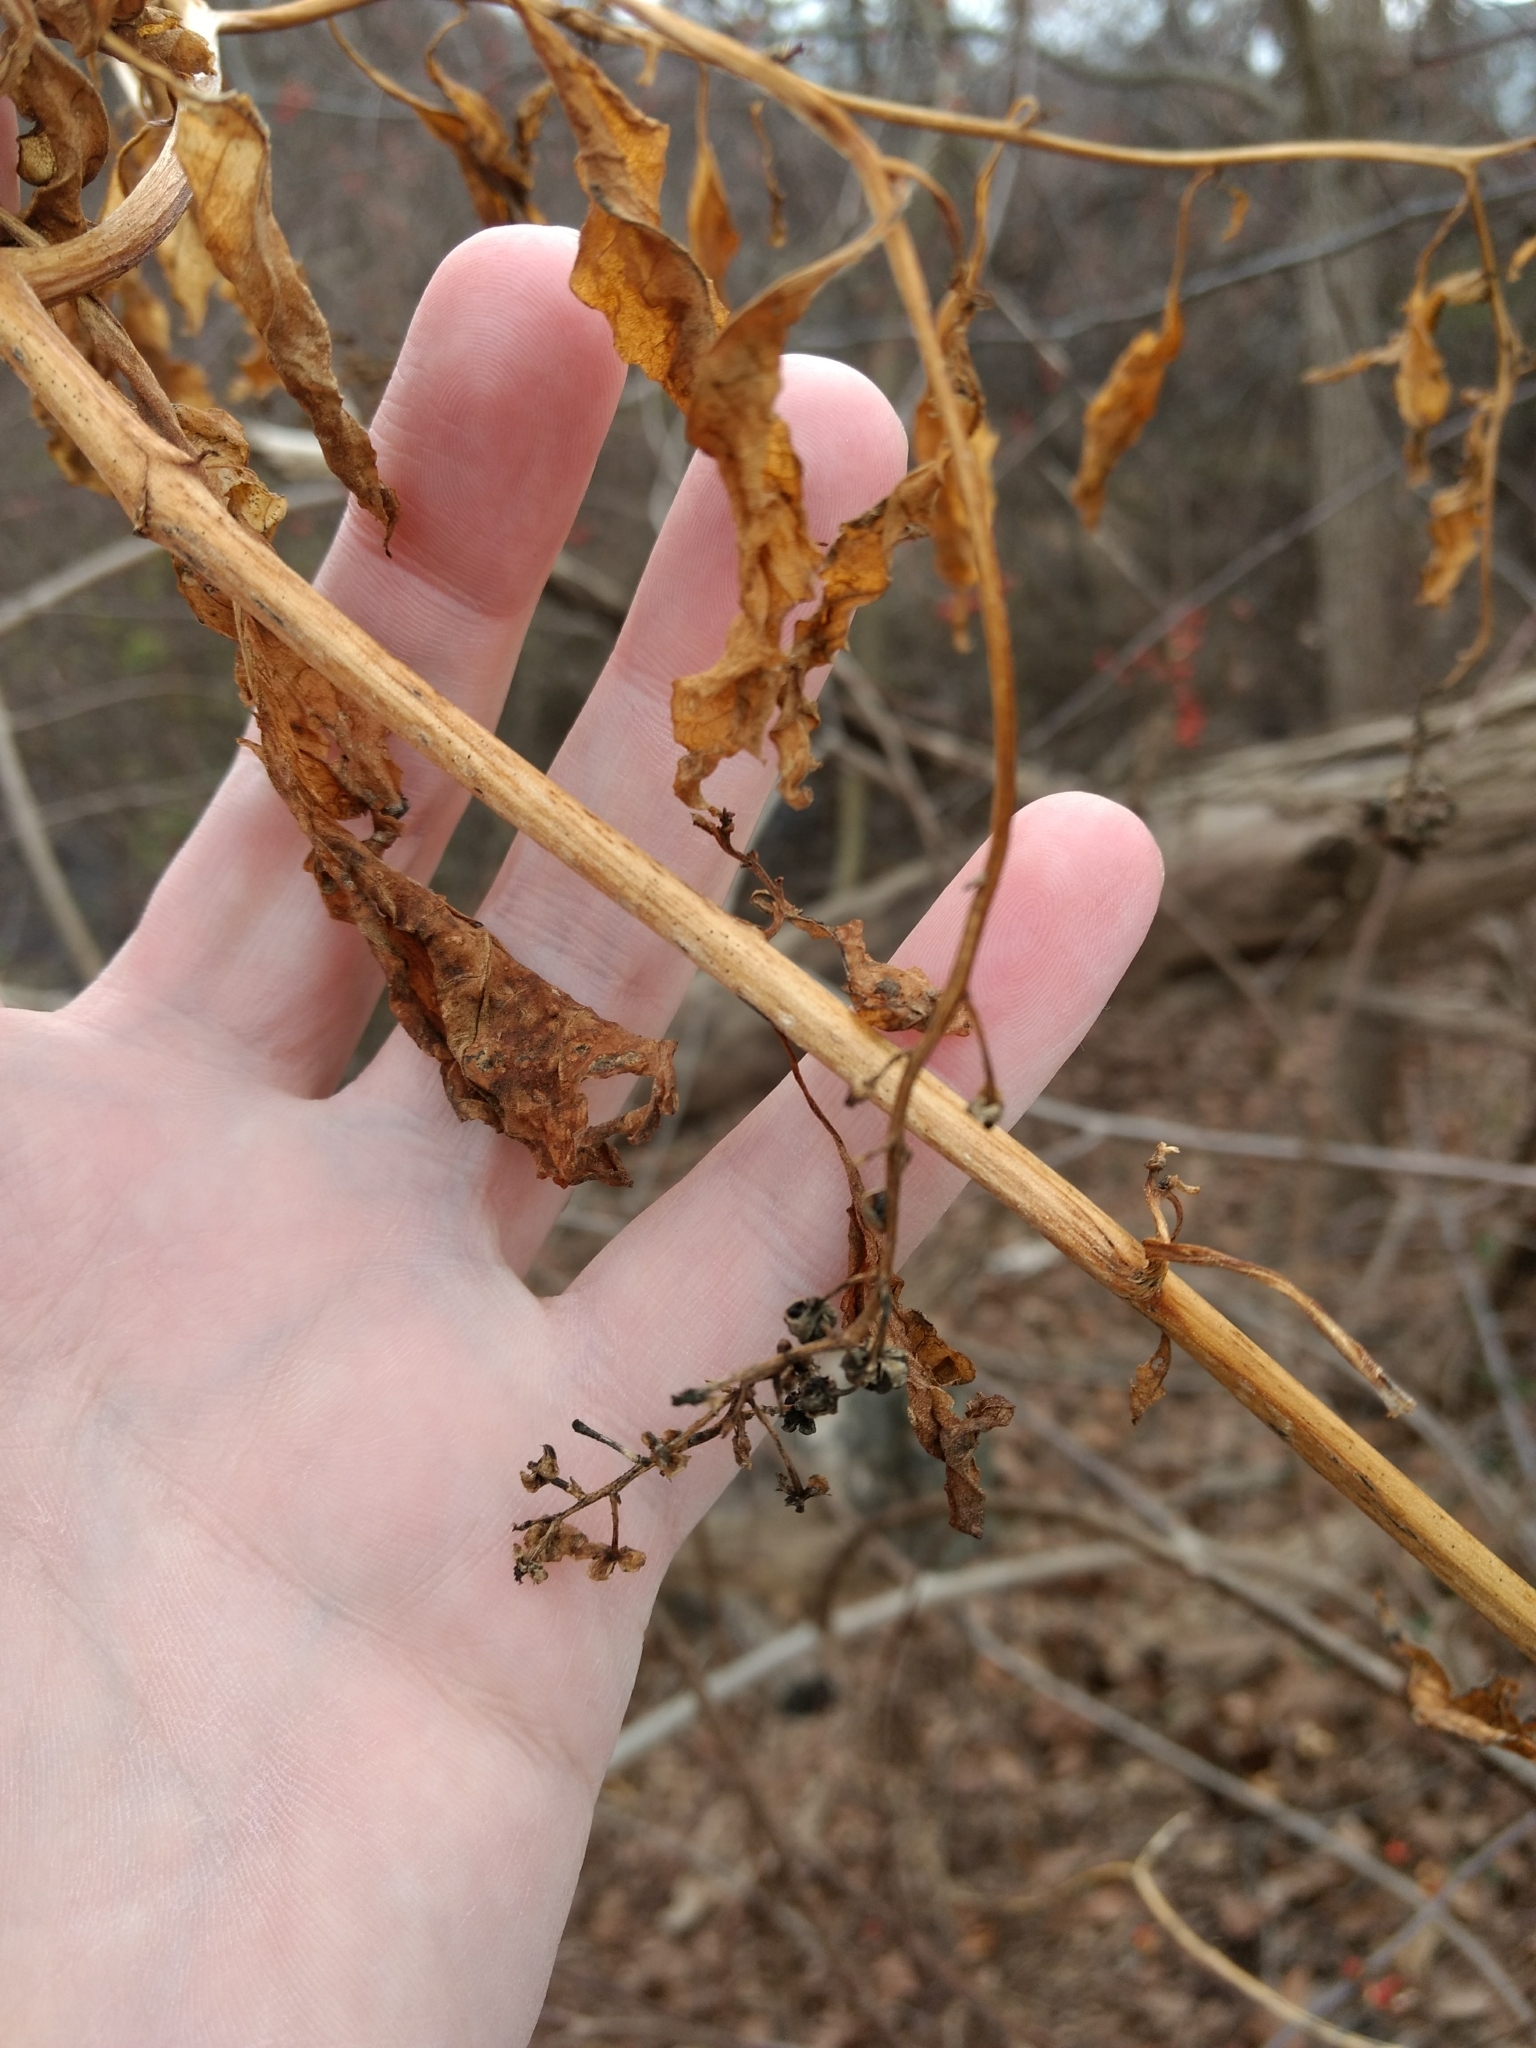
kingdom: Plantae
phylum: Tracheophyta
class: Magnoliopsida
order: Caryophyllales
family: Phytolaccaceae
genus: Phytolacca
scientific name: Phytolacca americana
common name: American pokeweed
